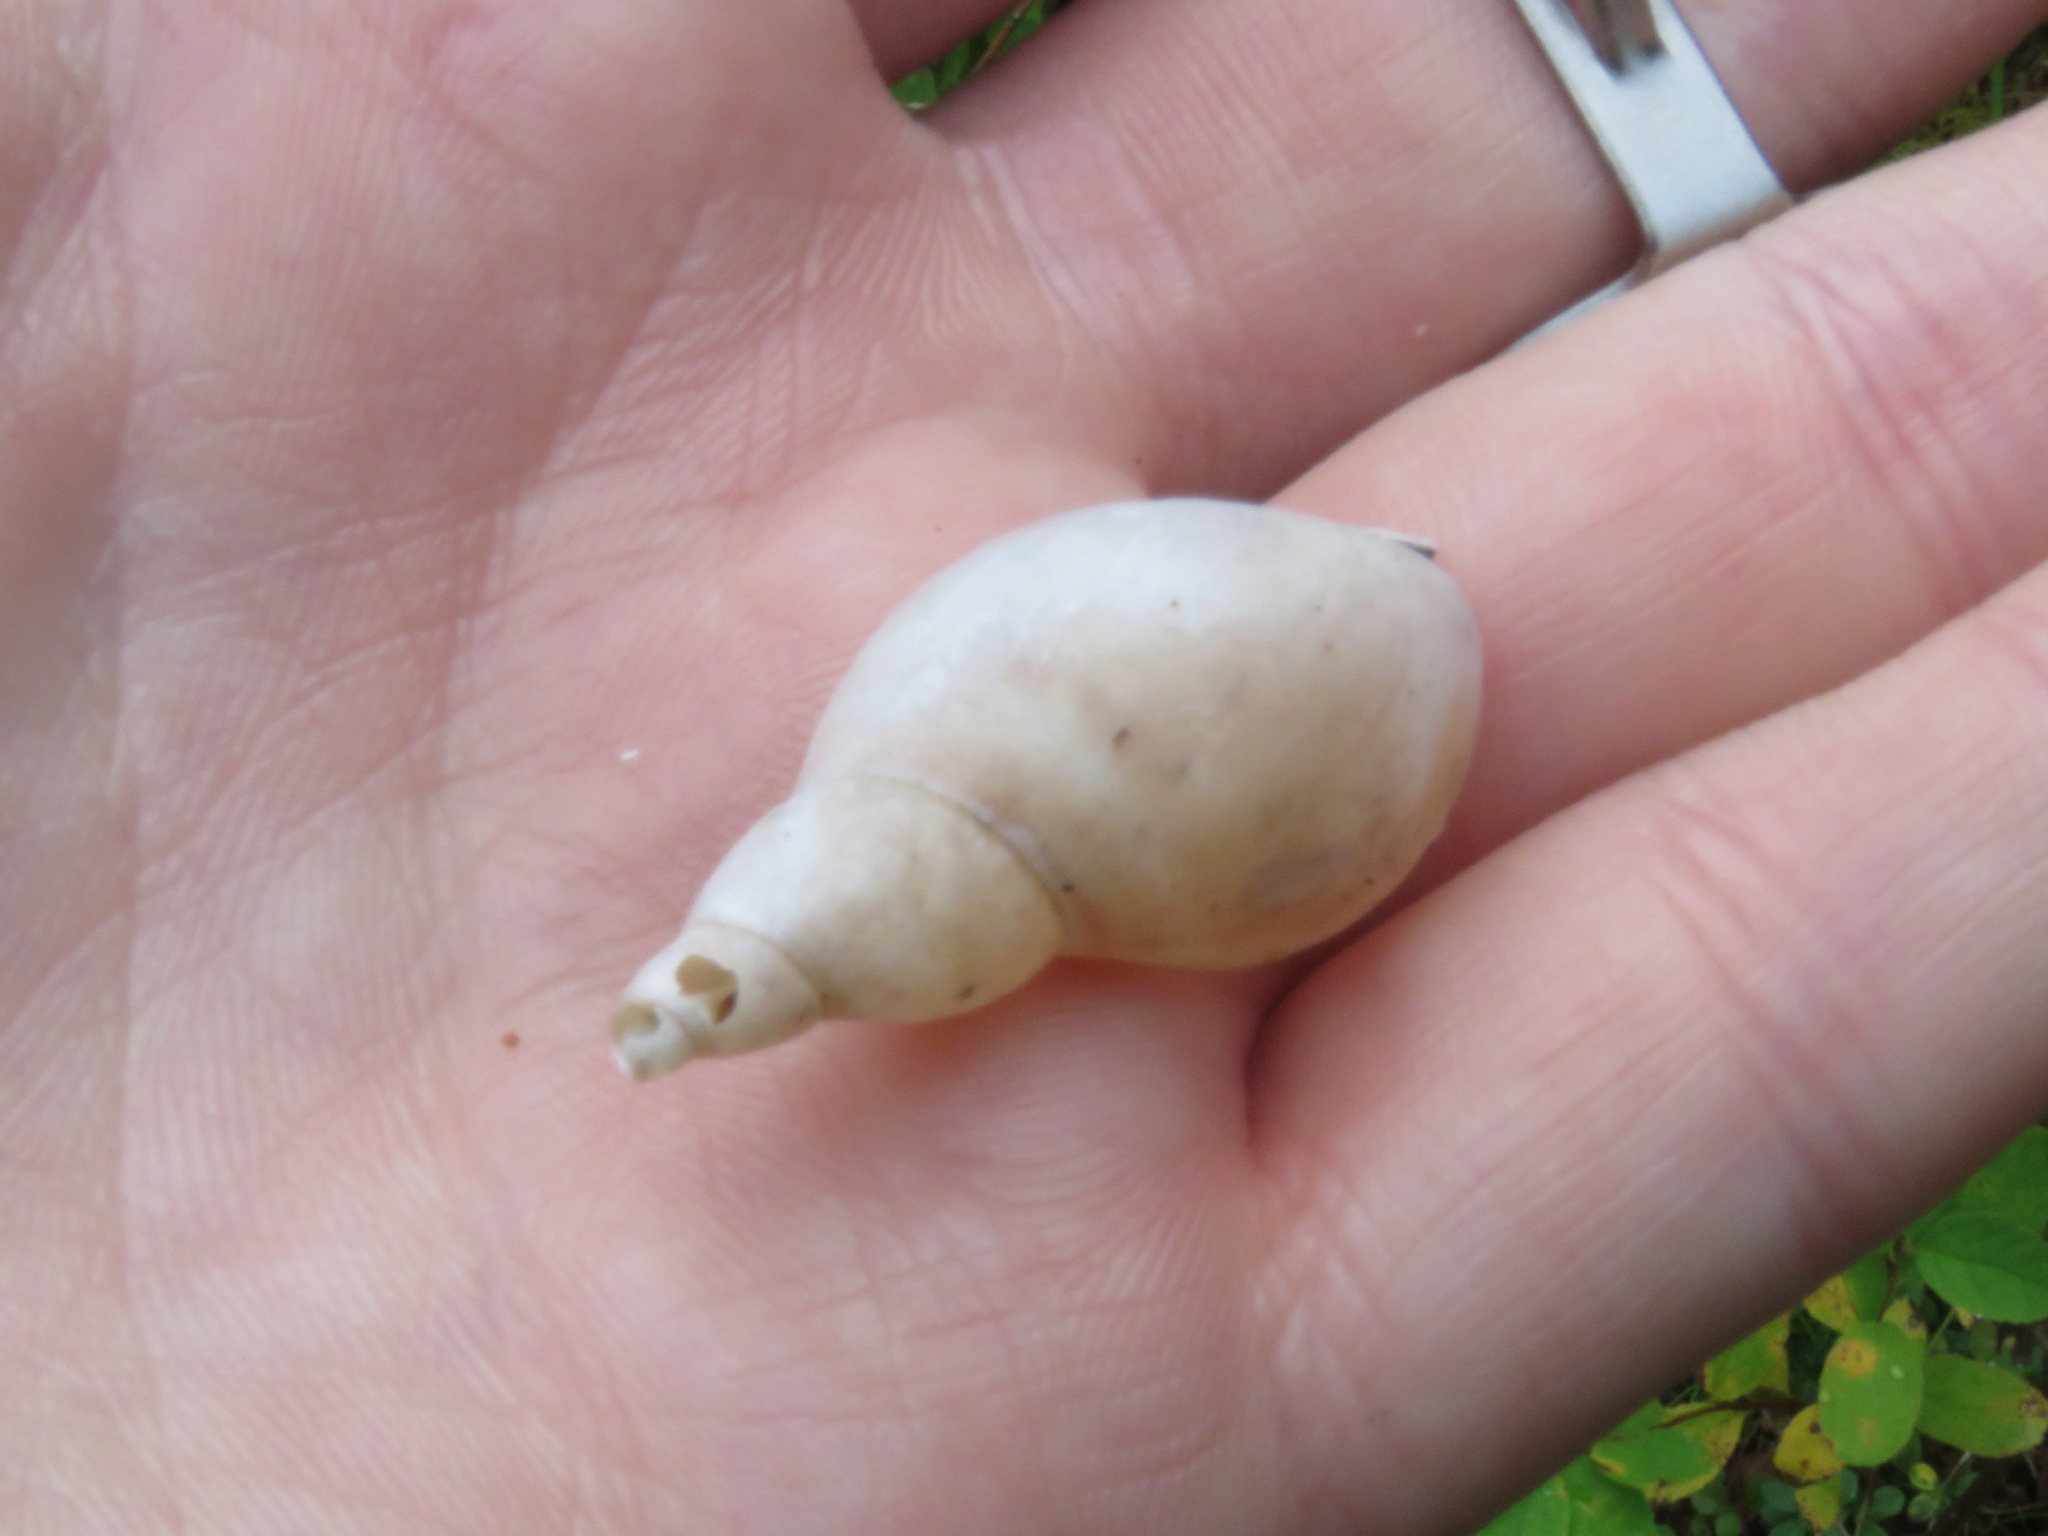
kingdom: Animalia
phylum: Mollusca
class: Gastropoda
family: Lymnaeidae
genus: Lymnaea
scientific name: Lymnaea stagnalis
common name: Great pond snail
